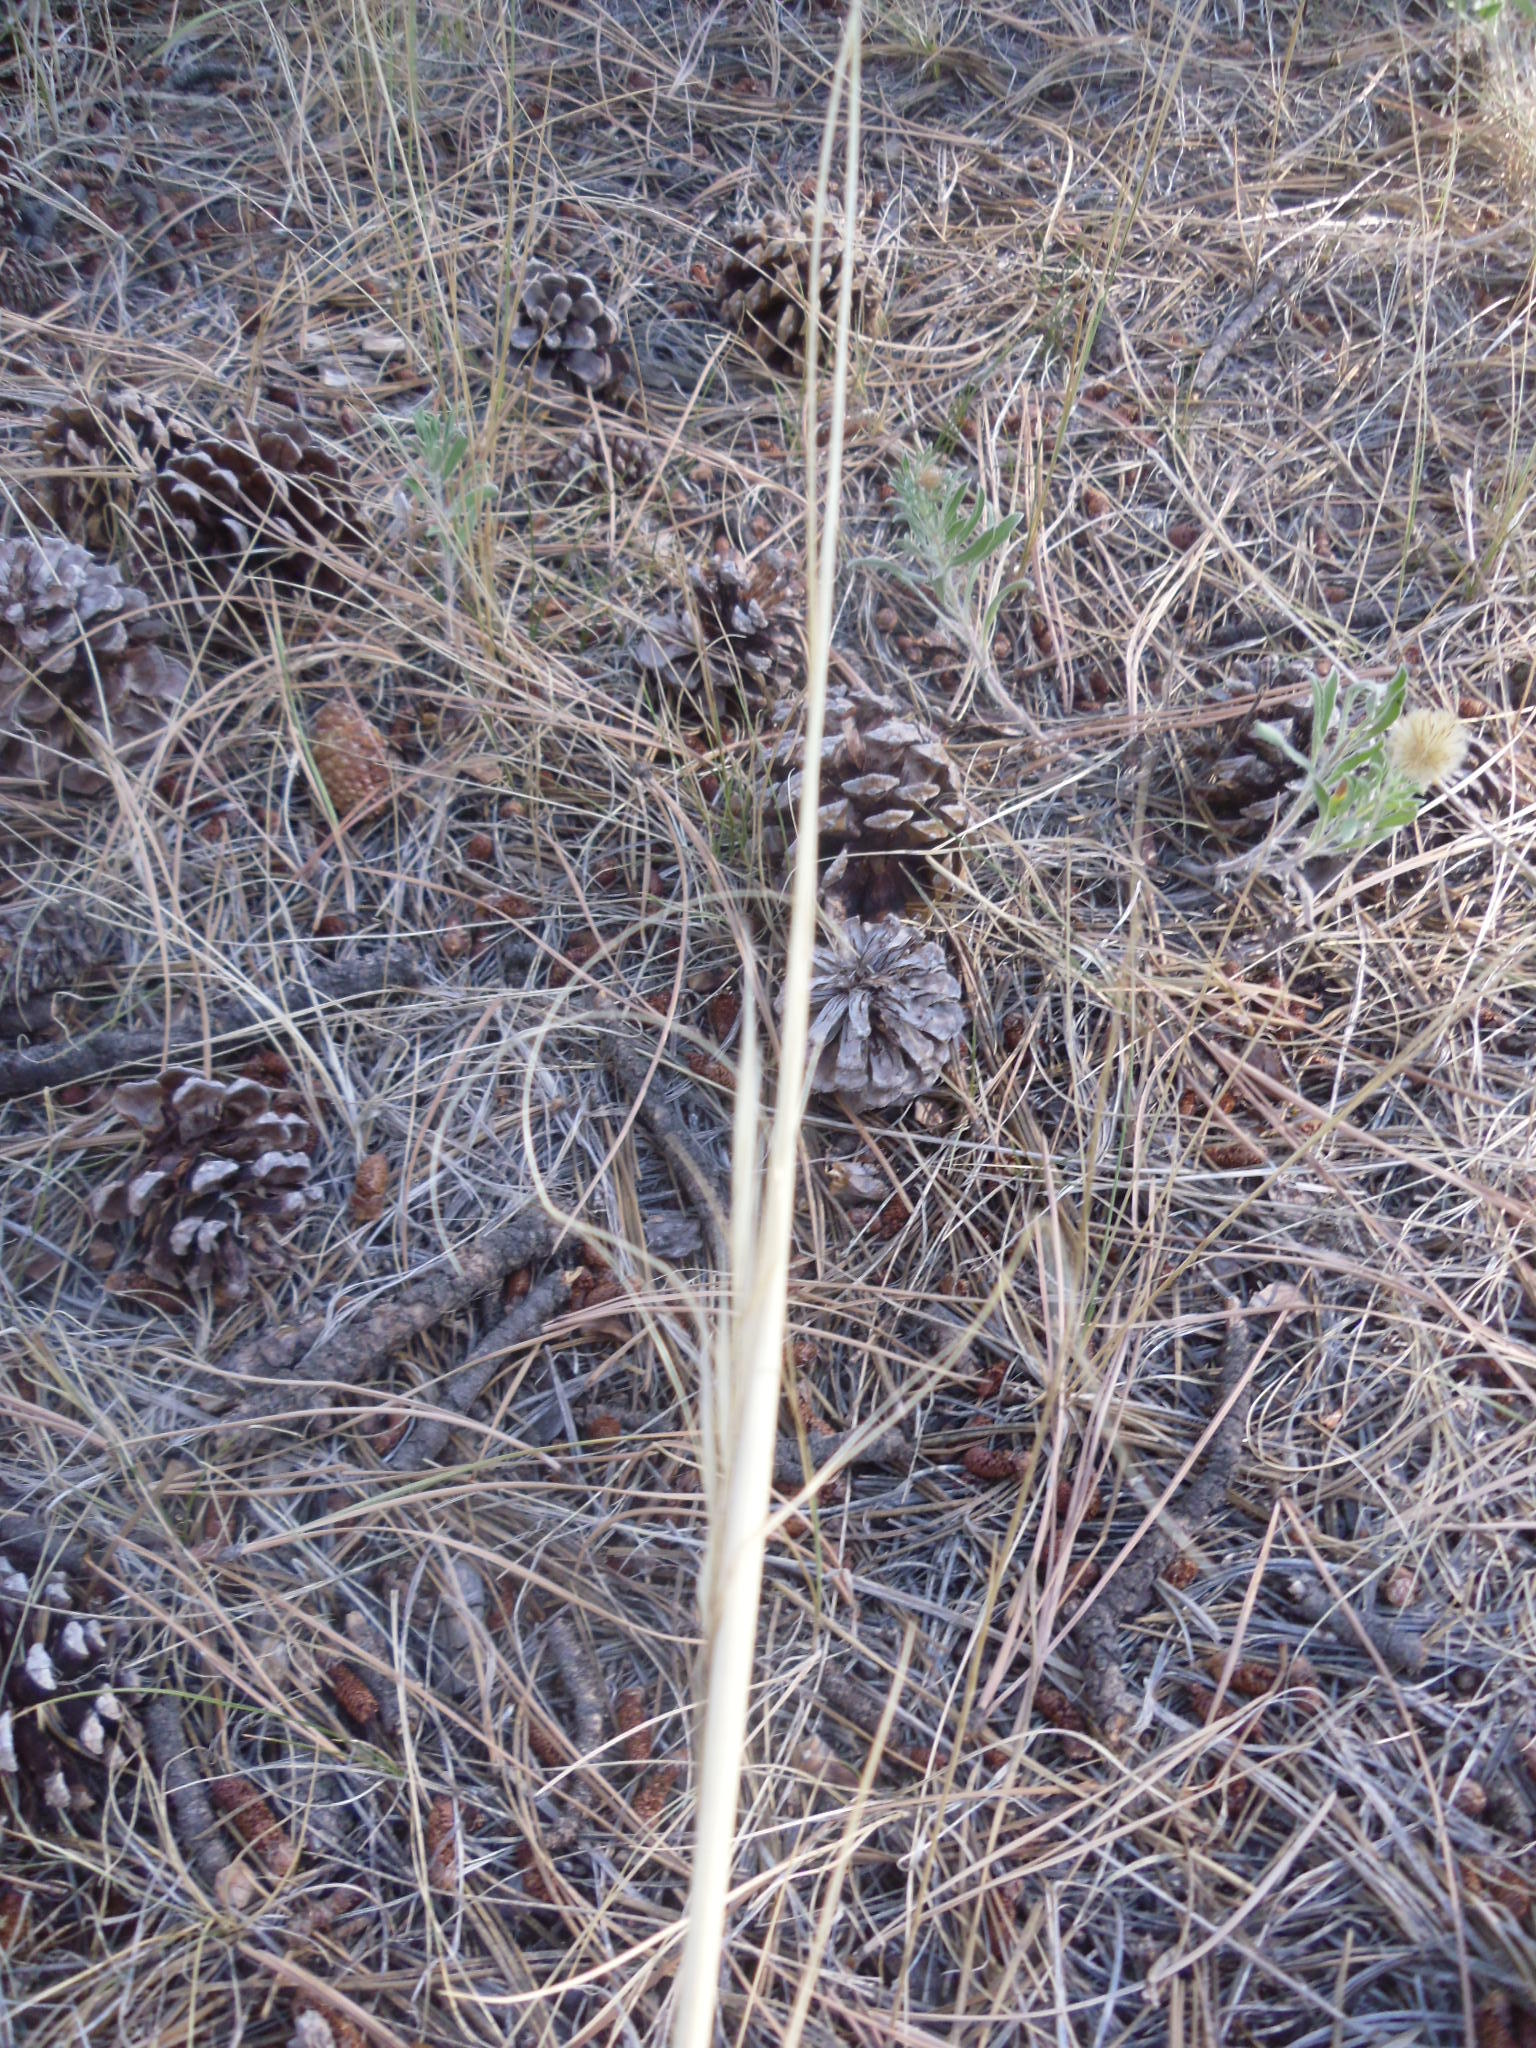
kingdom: Plantae
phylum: Tracheophyta
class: Liliopsida
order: Poales
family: Poaceae
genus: Hesperostipa
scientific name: Hesperostipa comata
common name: Needle-and-thread grass
